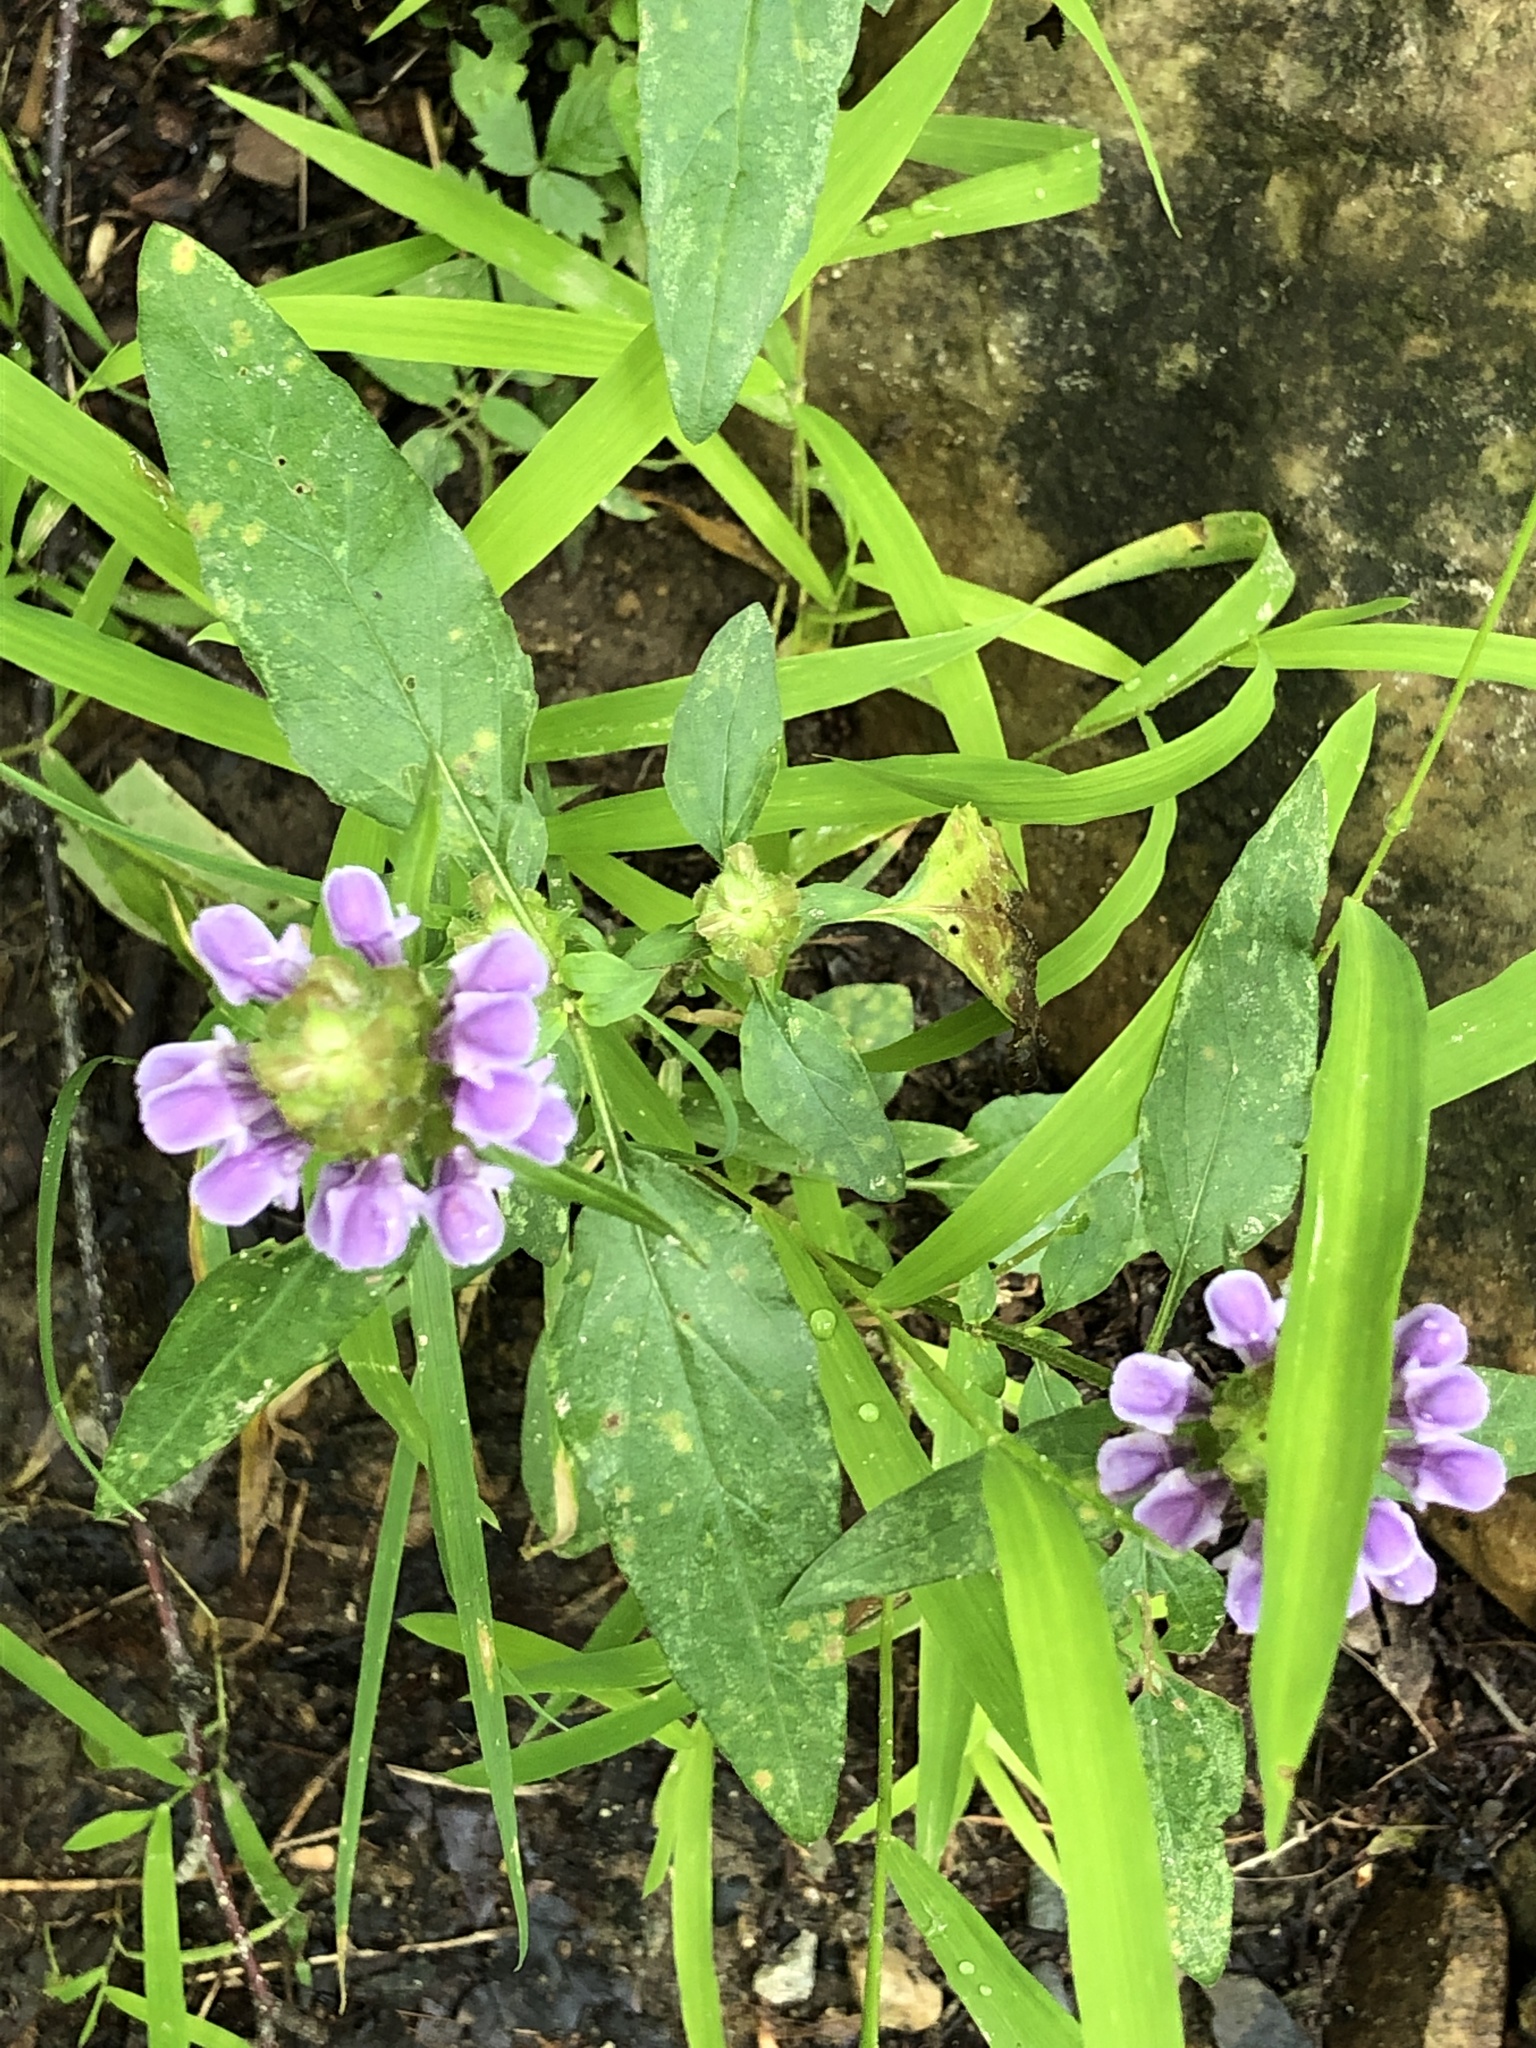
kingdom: Plantae
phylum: Tracheophyta
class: Magnoliopsida
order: Lamiales
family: Lamiaceae
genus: Prunella
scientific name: Prunella vulgaris
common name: Heal-all
